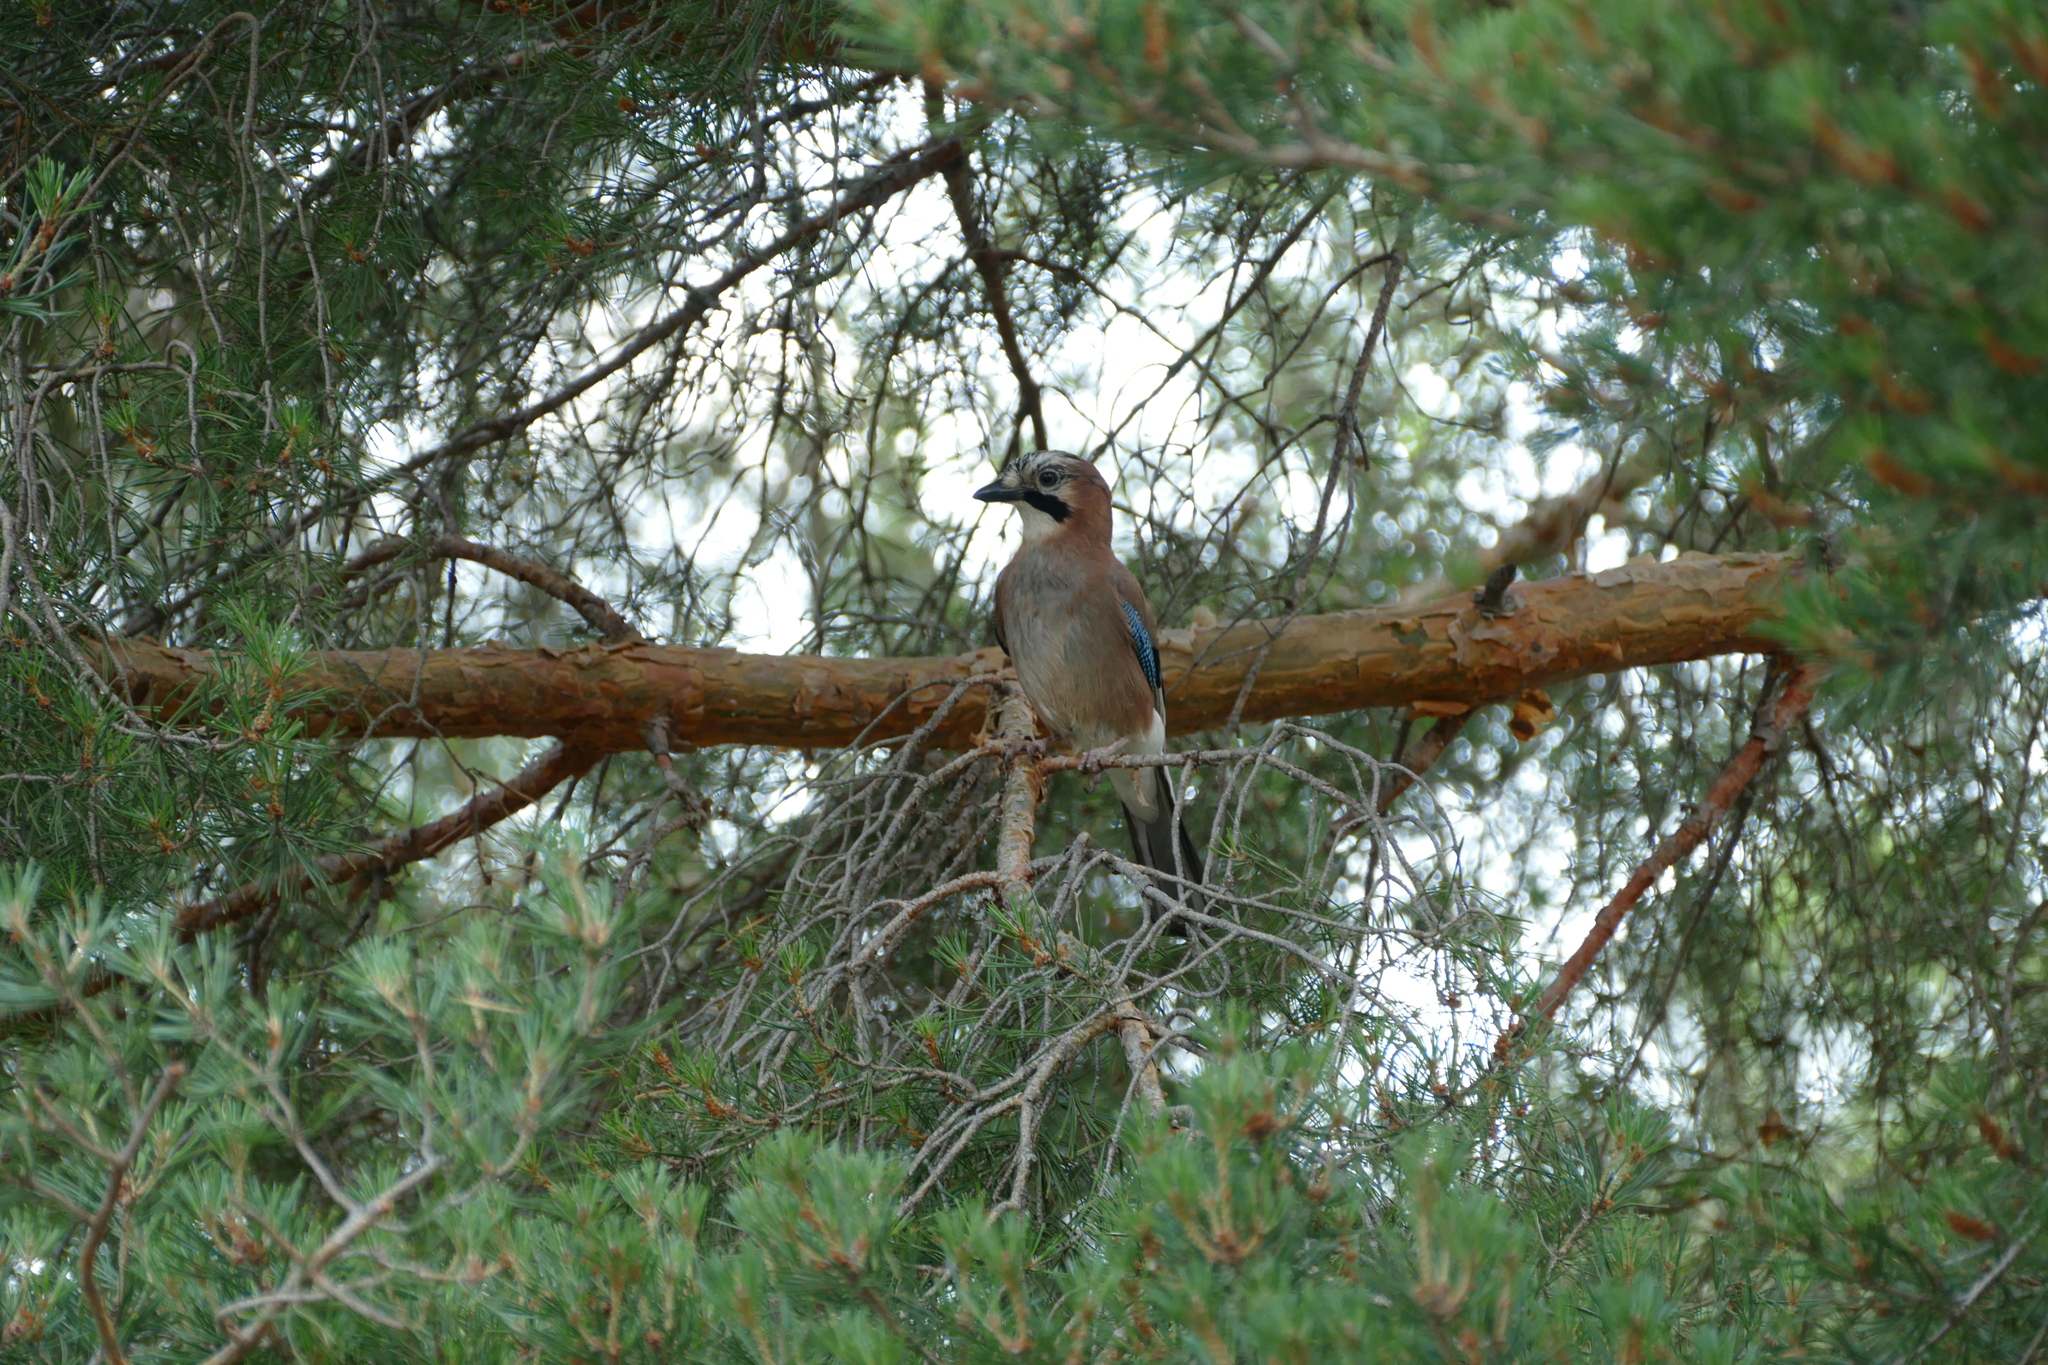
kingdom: Animalia
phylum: Chordata
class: Aves
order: Passeriformes
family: Corvidae
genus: Garrulus
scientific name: Garrulus glandarius
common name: Eurasian jay
